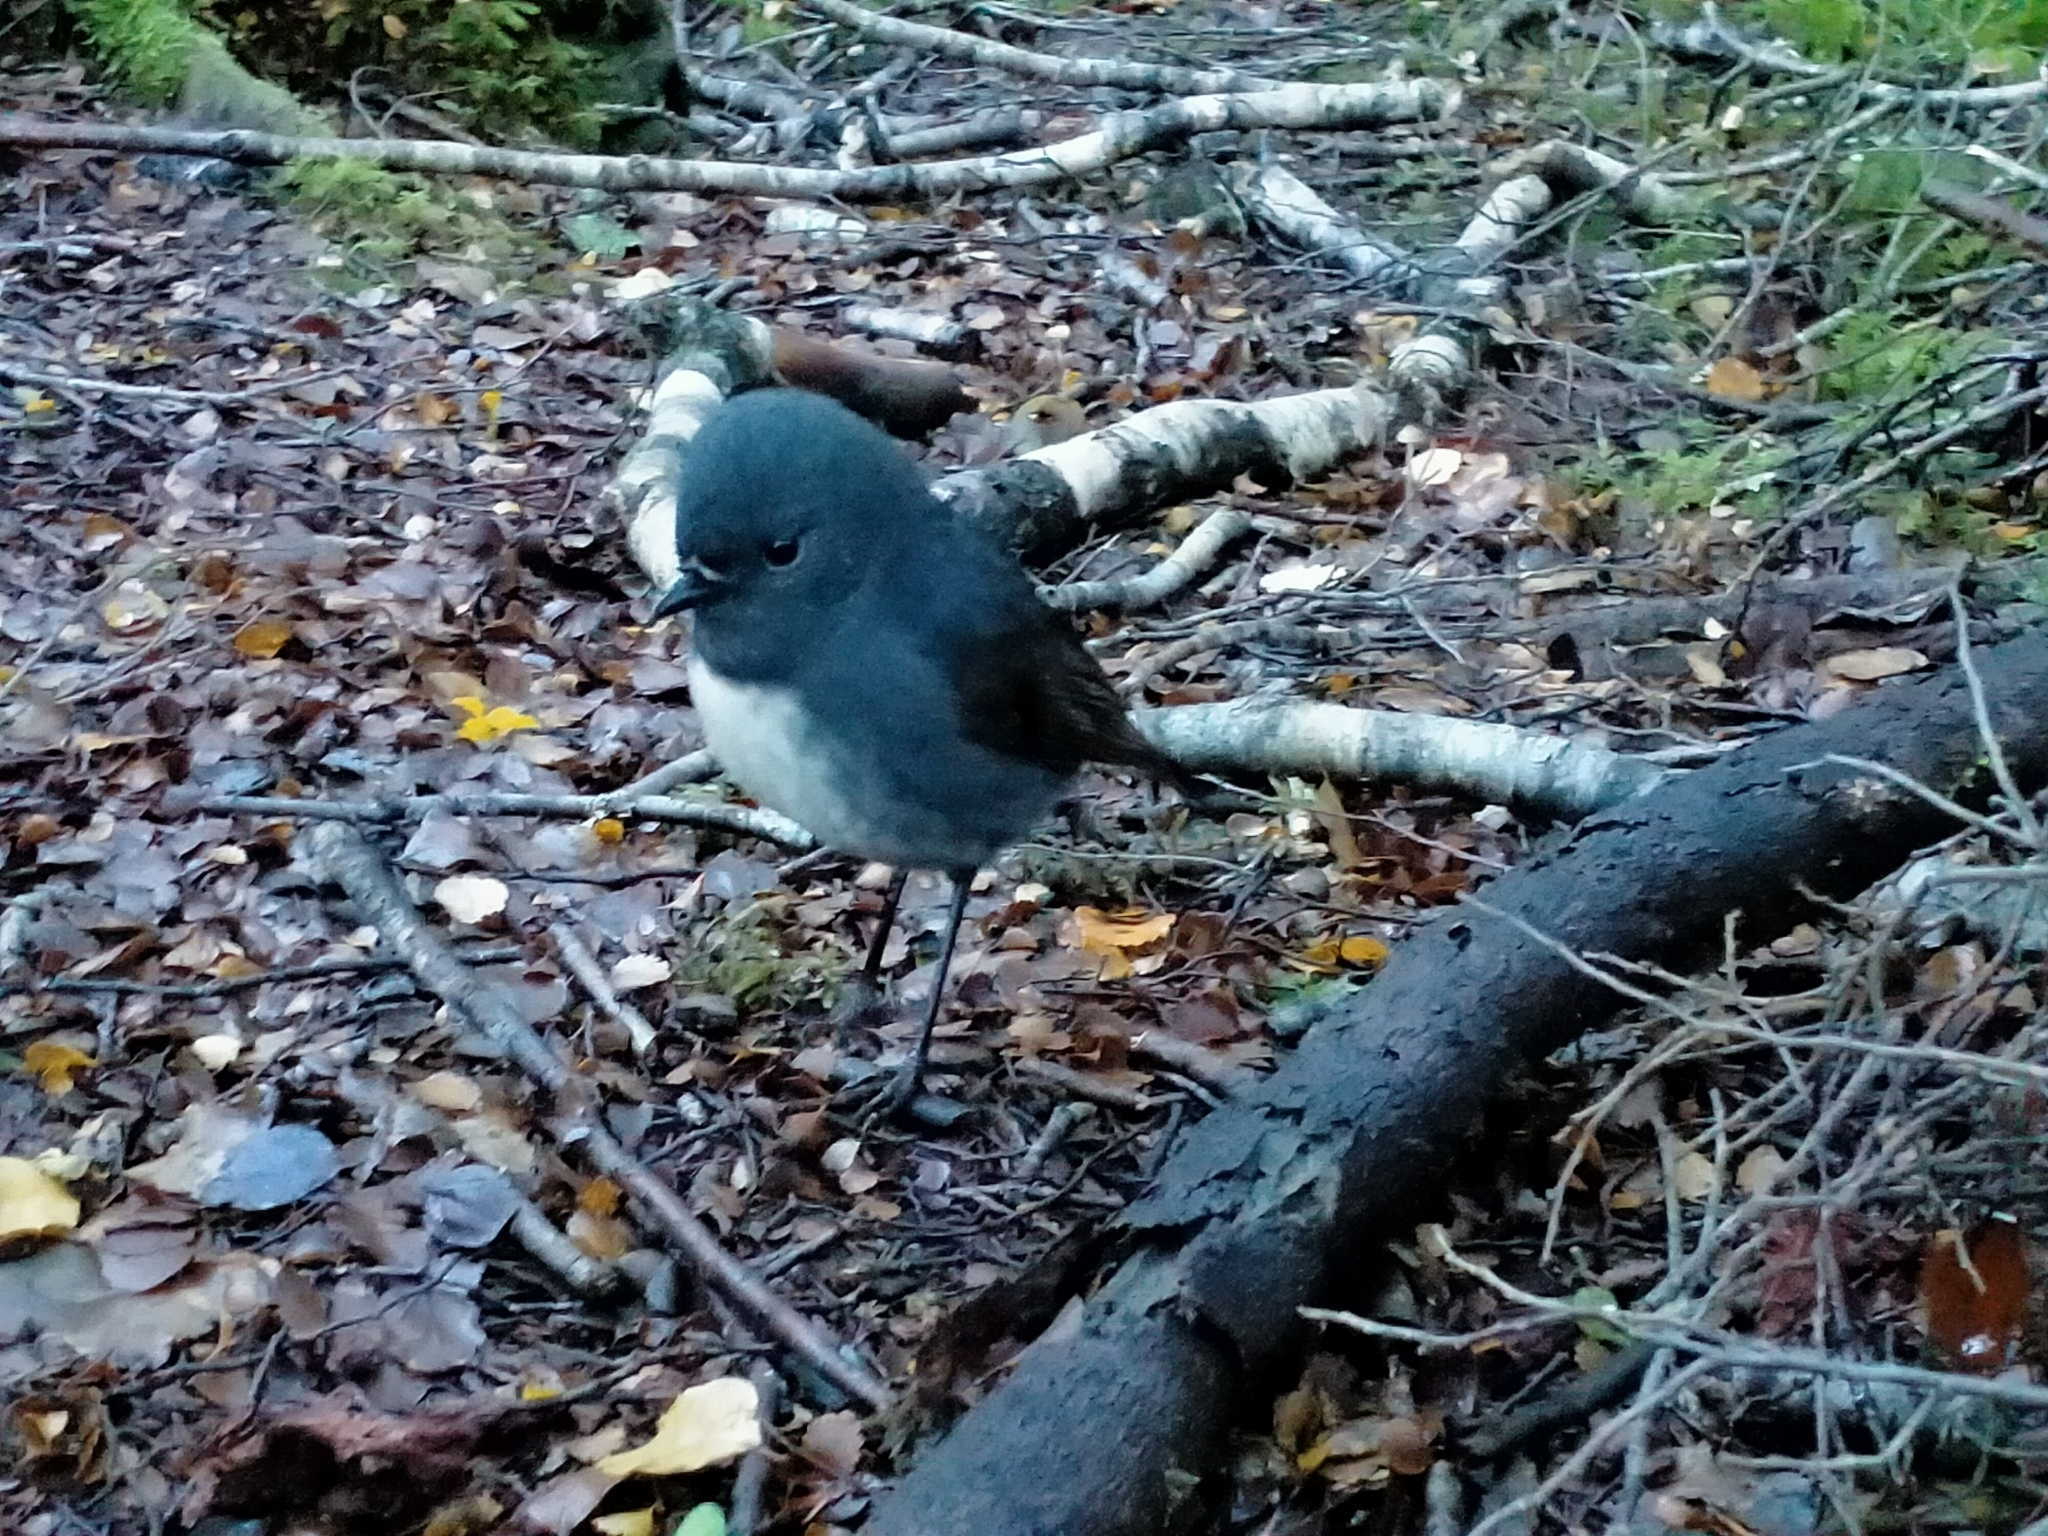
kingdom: Animalia
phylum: Chordata
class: Aves
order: Passeriformes
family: Petroicidae
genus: Petroica
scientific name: Petroica australis
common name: New zealand robin
